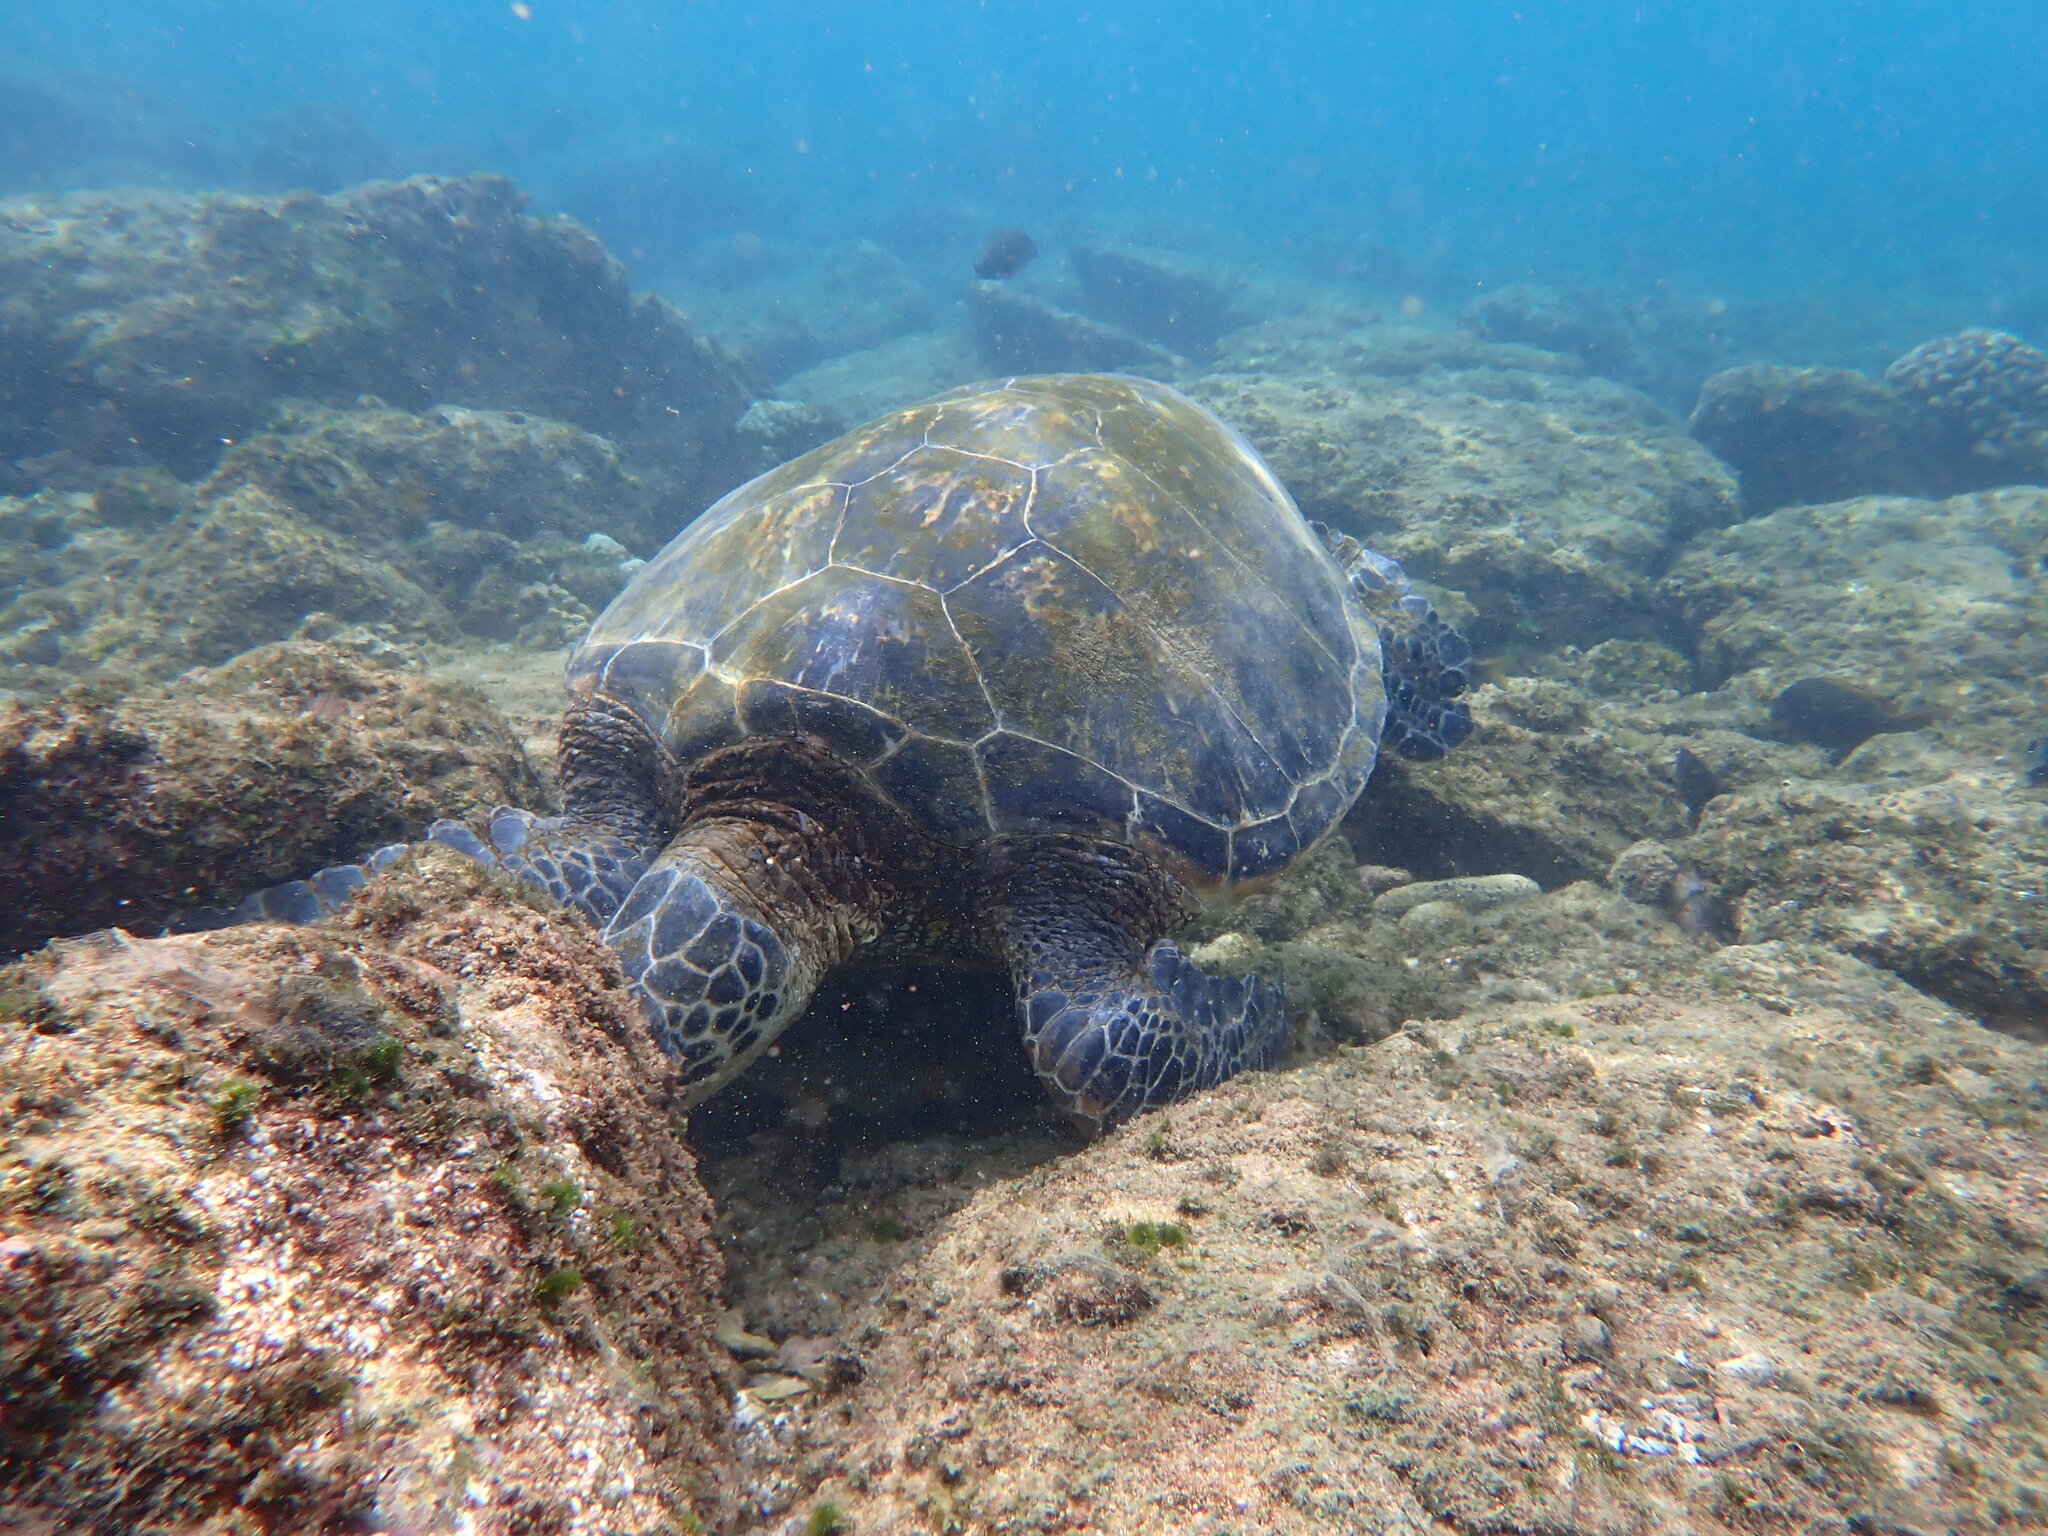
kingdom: Animalia
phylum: Chordata
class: Testudines
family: Cheloniidae
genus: Chelonia
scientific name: Chelonia mydas
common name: Green turtle
